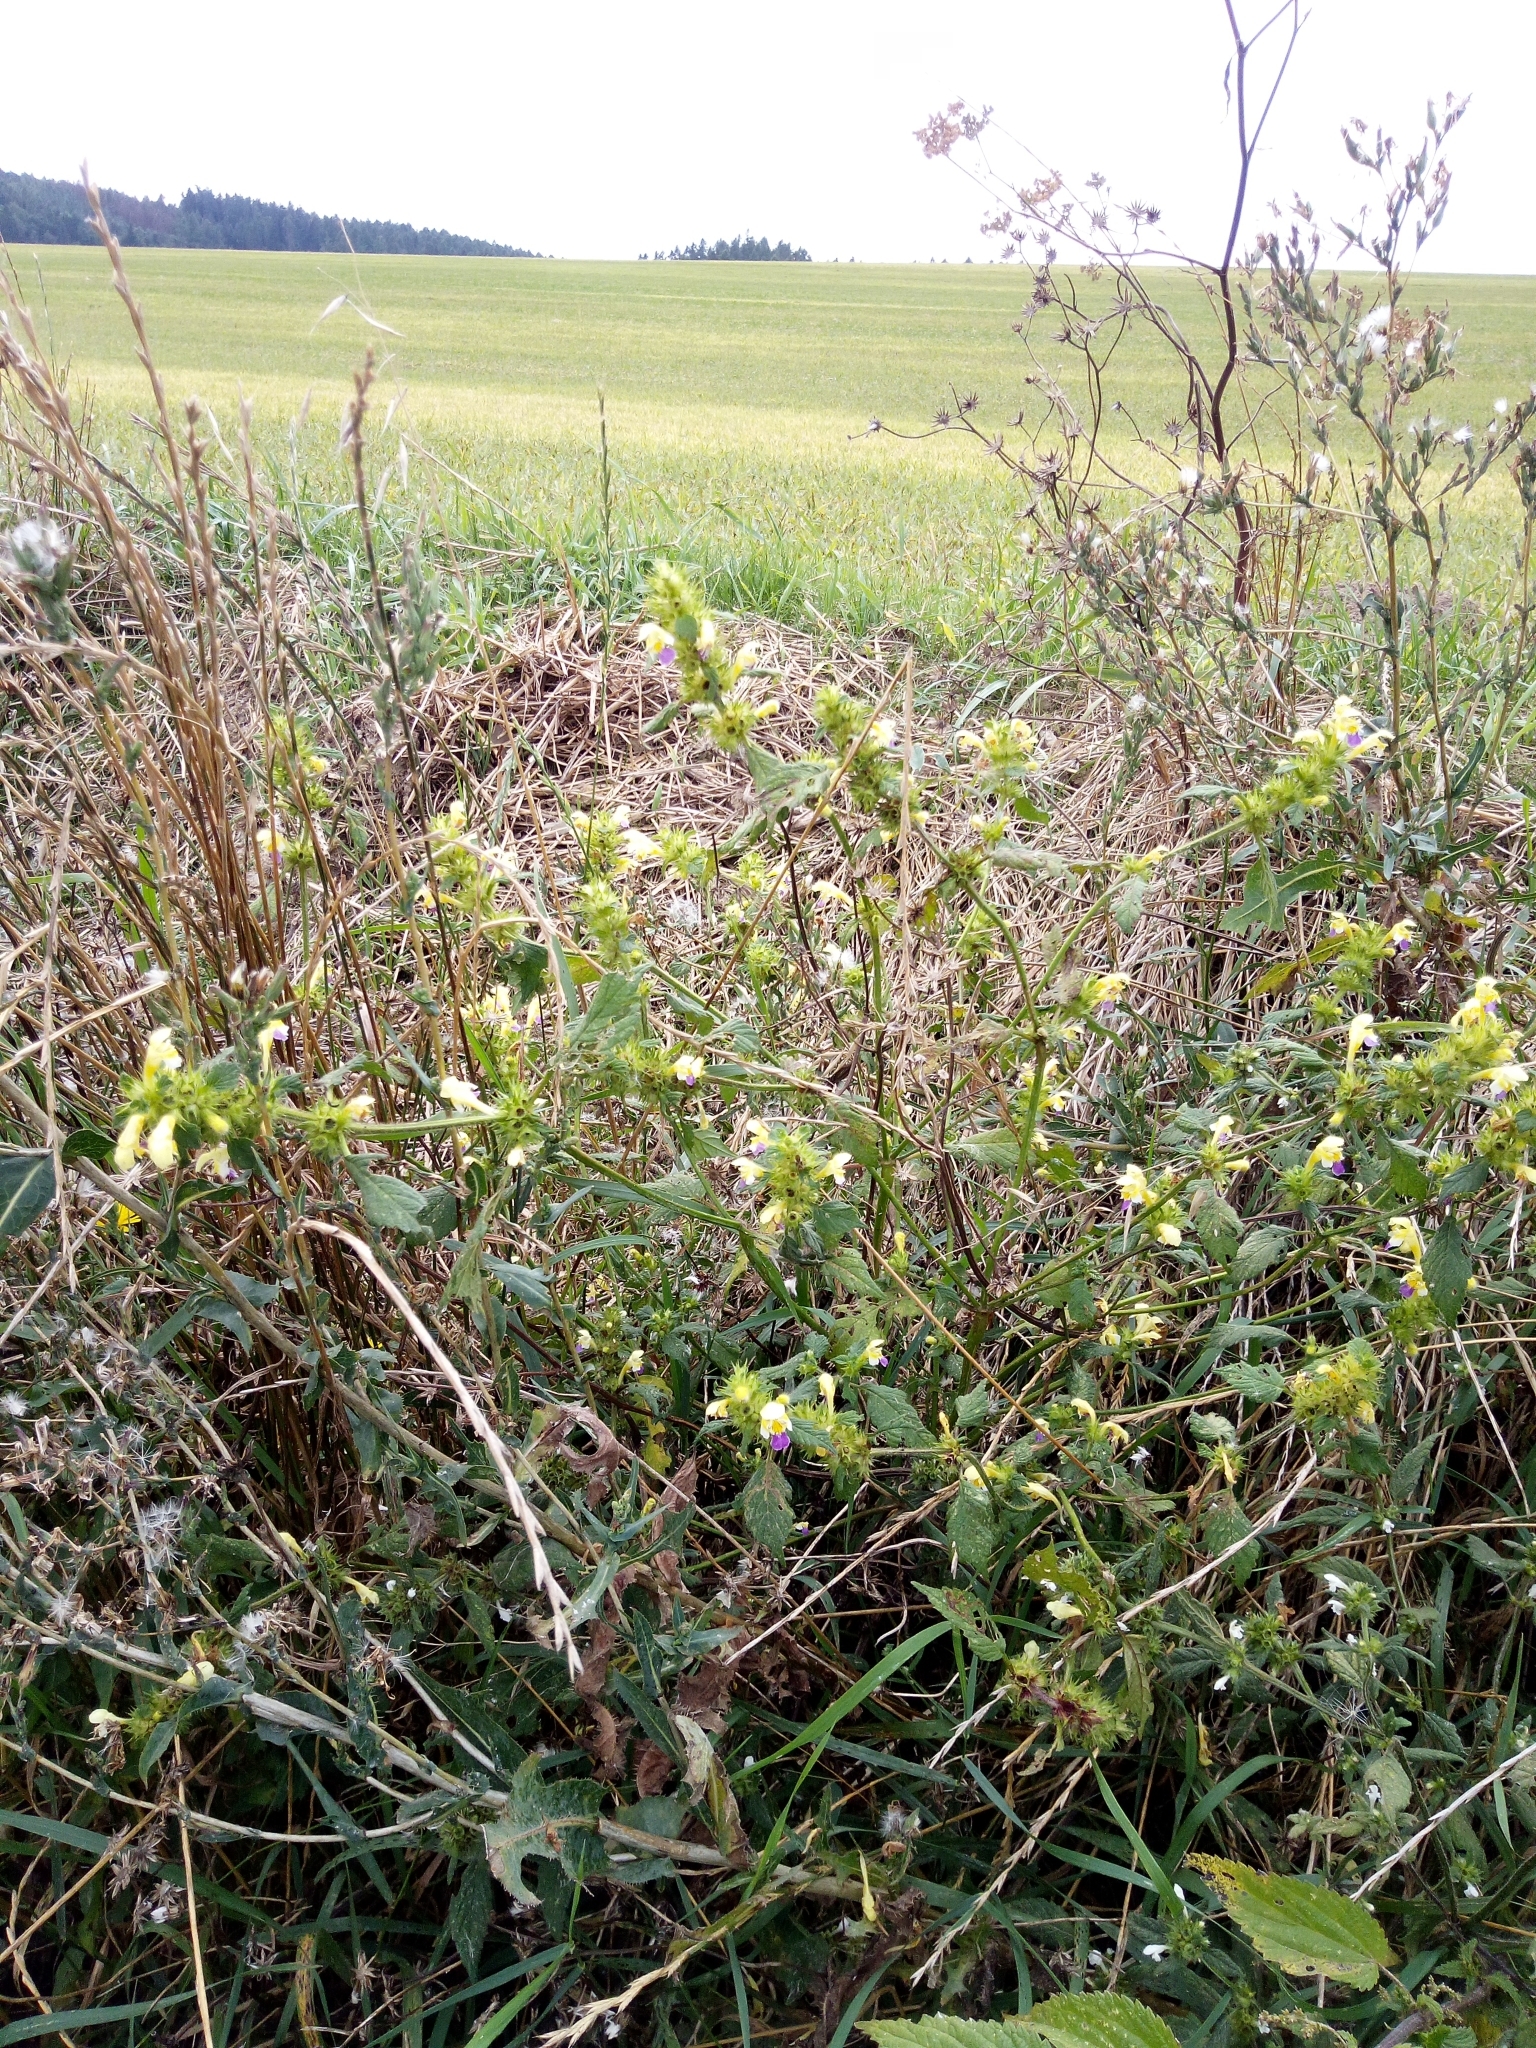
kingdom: Plantae
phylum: Tracheophyta
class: Magnoliopsida
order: Lamiales
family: Lamiaceae
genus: Galeopsis
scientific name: Galeopsis speciosa
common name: Large-flowered hemp-nettle
